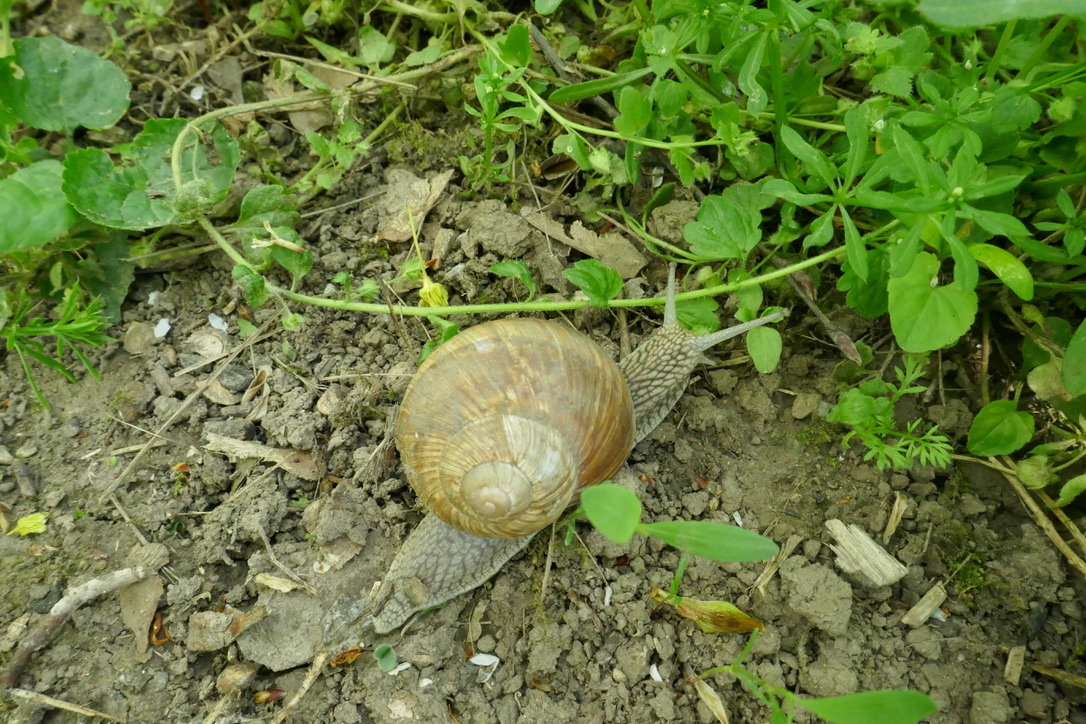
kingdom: Animalia
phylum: Mollusca
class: Gastropoda
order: Stylommatophora
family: Helicidae
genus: Helix
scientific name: Helix pomatia
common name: Roman snail
